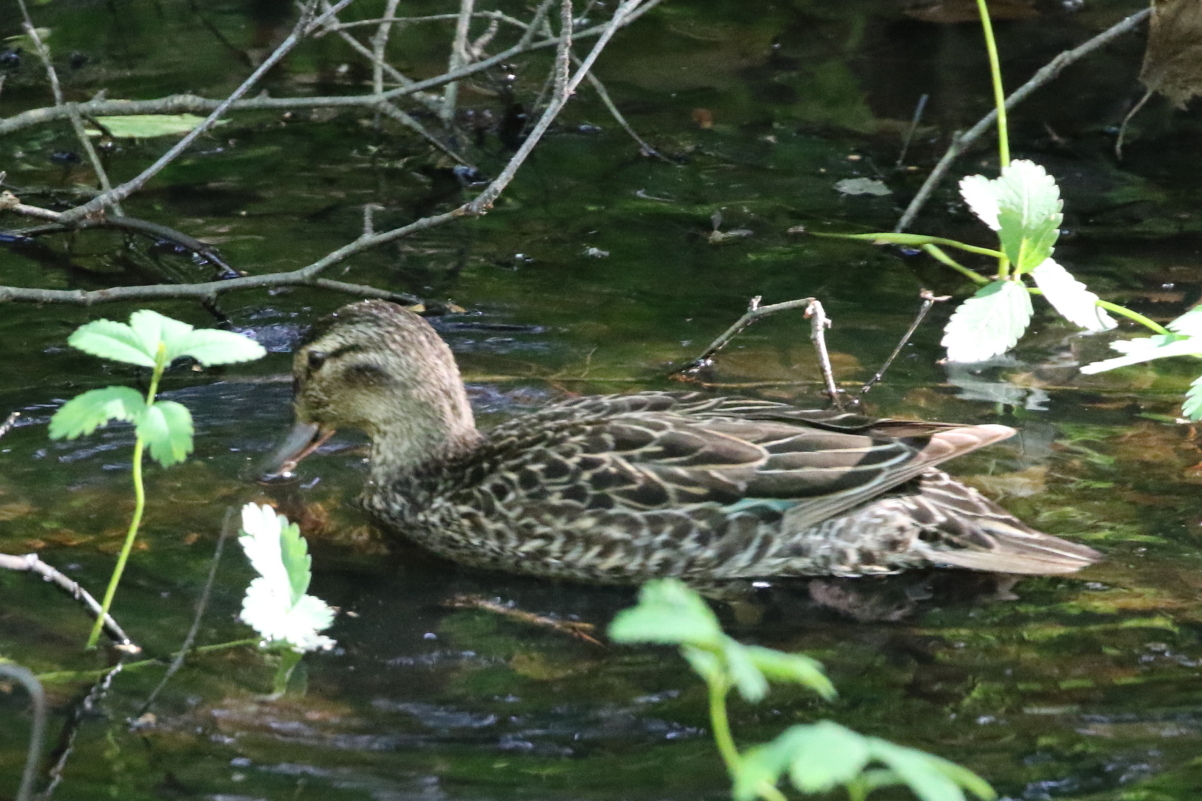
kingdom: Animalia
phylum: Chordata
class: Aves
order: Anseriformes
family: Anatidae
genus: Anas
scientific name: Anas crecca
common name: Eurasian teal
